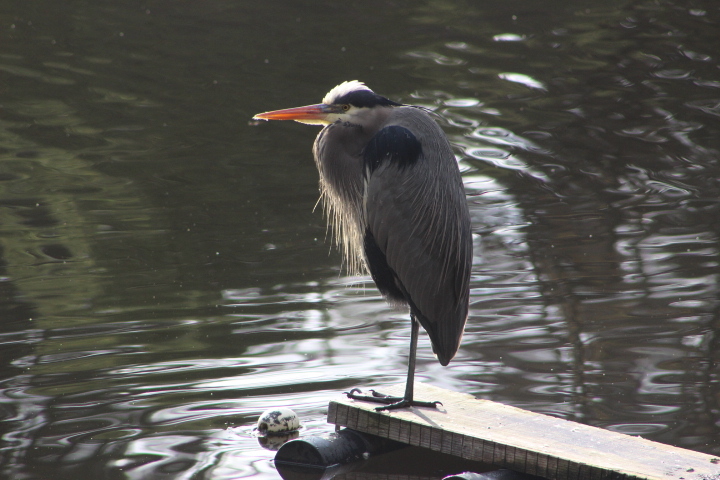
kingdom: Animalia
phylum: Chordata
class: Aves
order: Pelecaniformes
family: Ardeidae
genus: Ardea
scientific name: Ardea herodias
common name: Great blue heron
